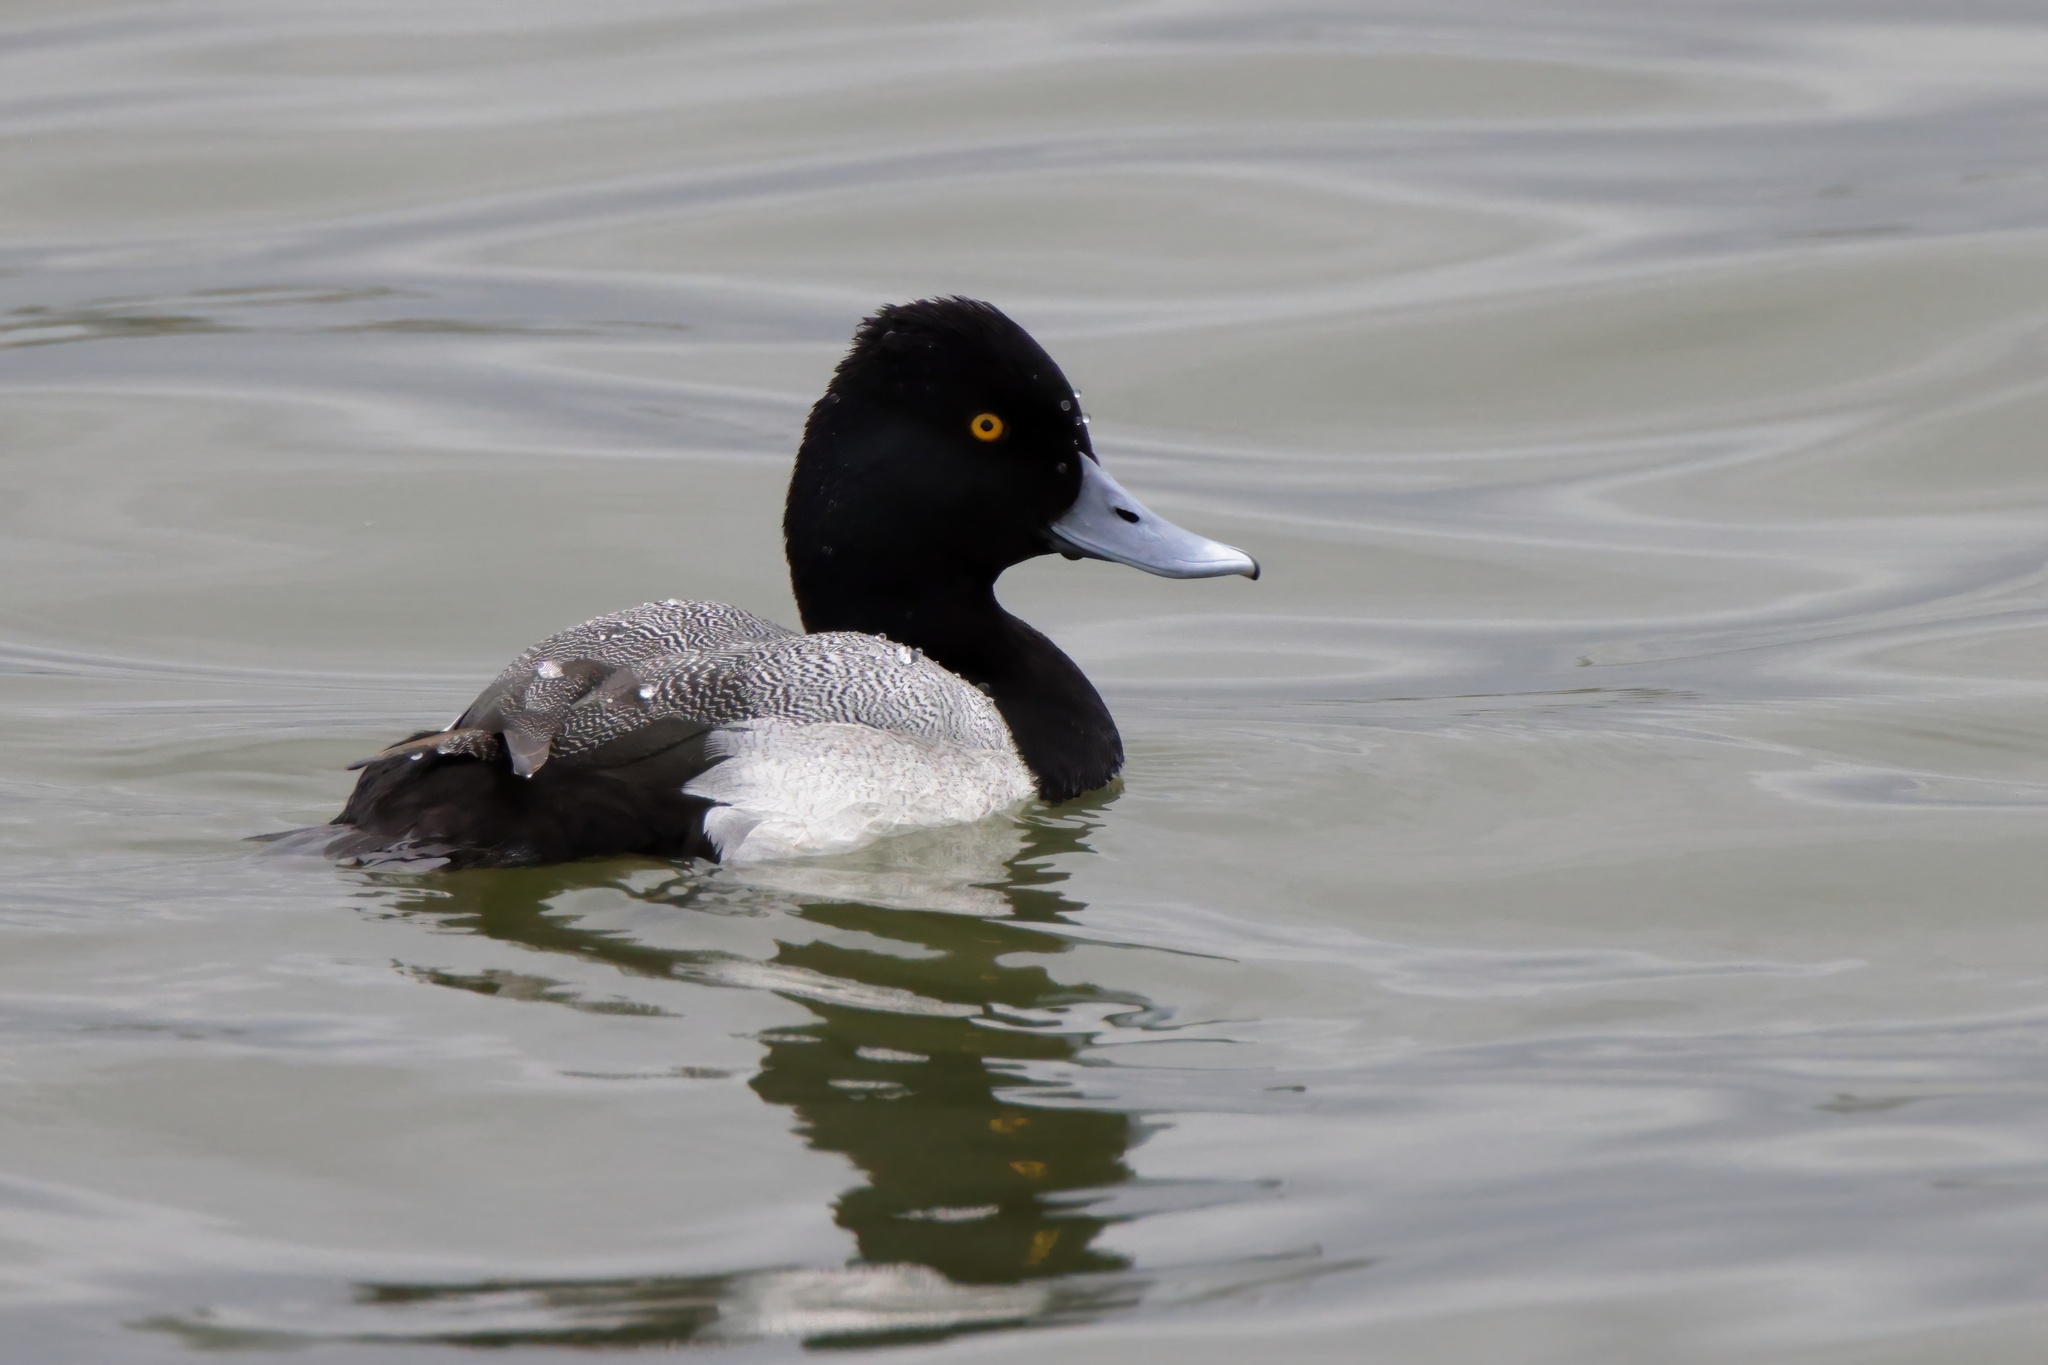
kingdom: Animalia
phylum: Chordata
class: Aves
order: Anseriformes
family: Anatidae
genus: Aythya
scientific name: Aythya affinis
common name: Lesser scaup
